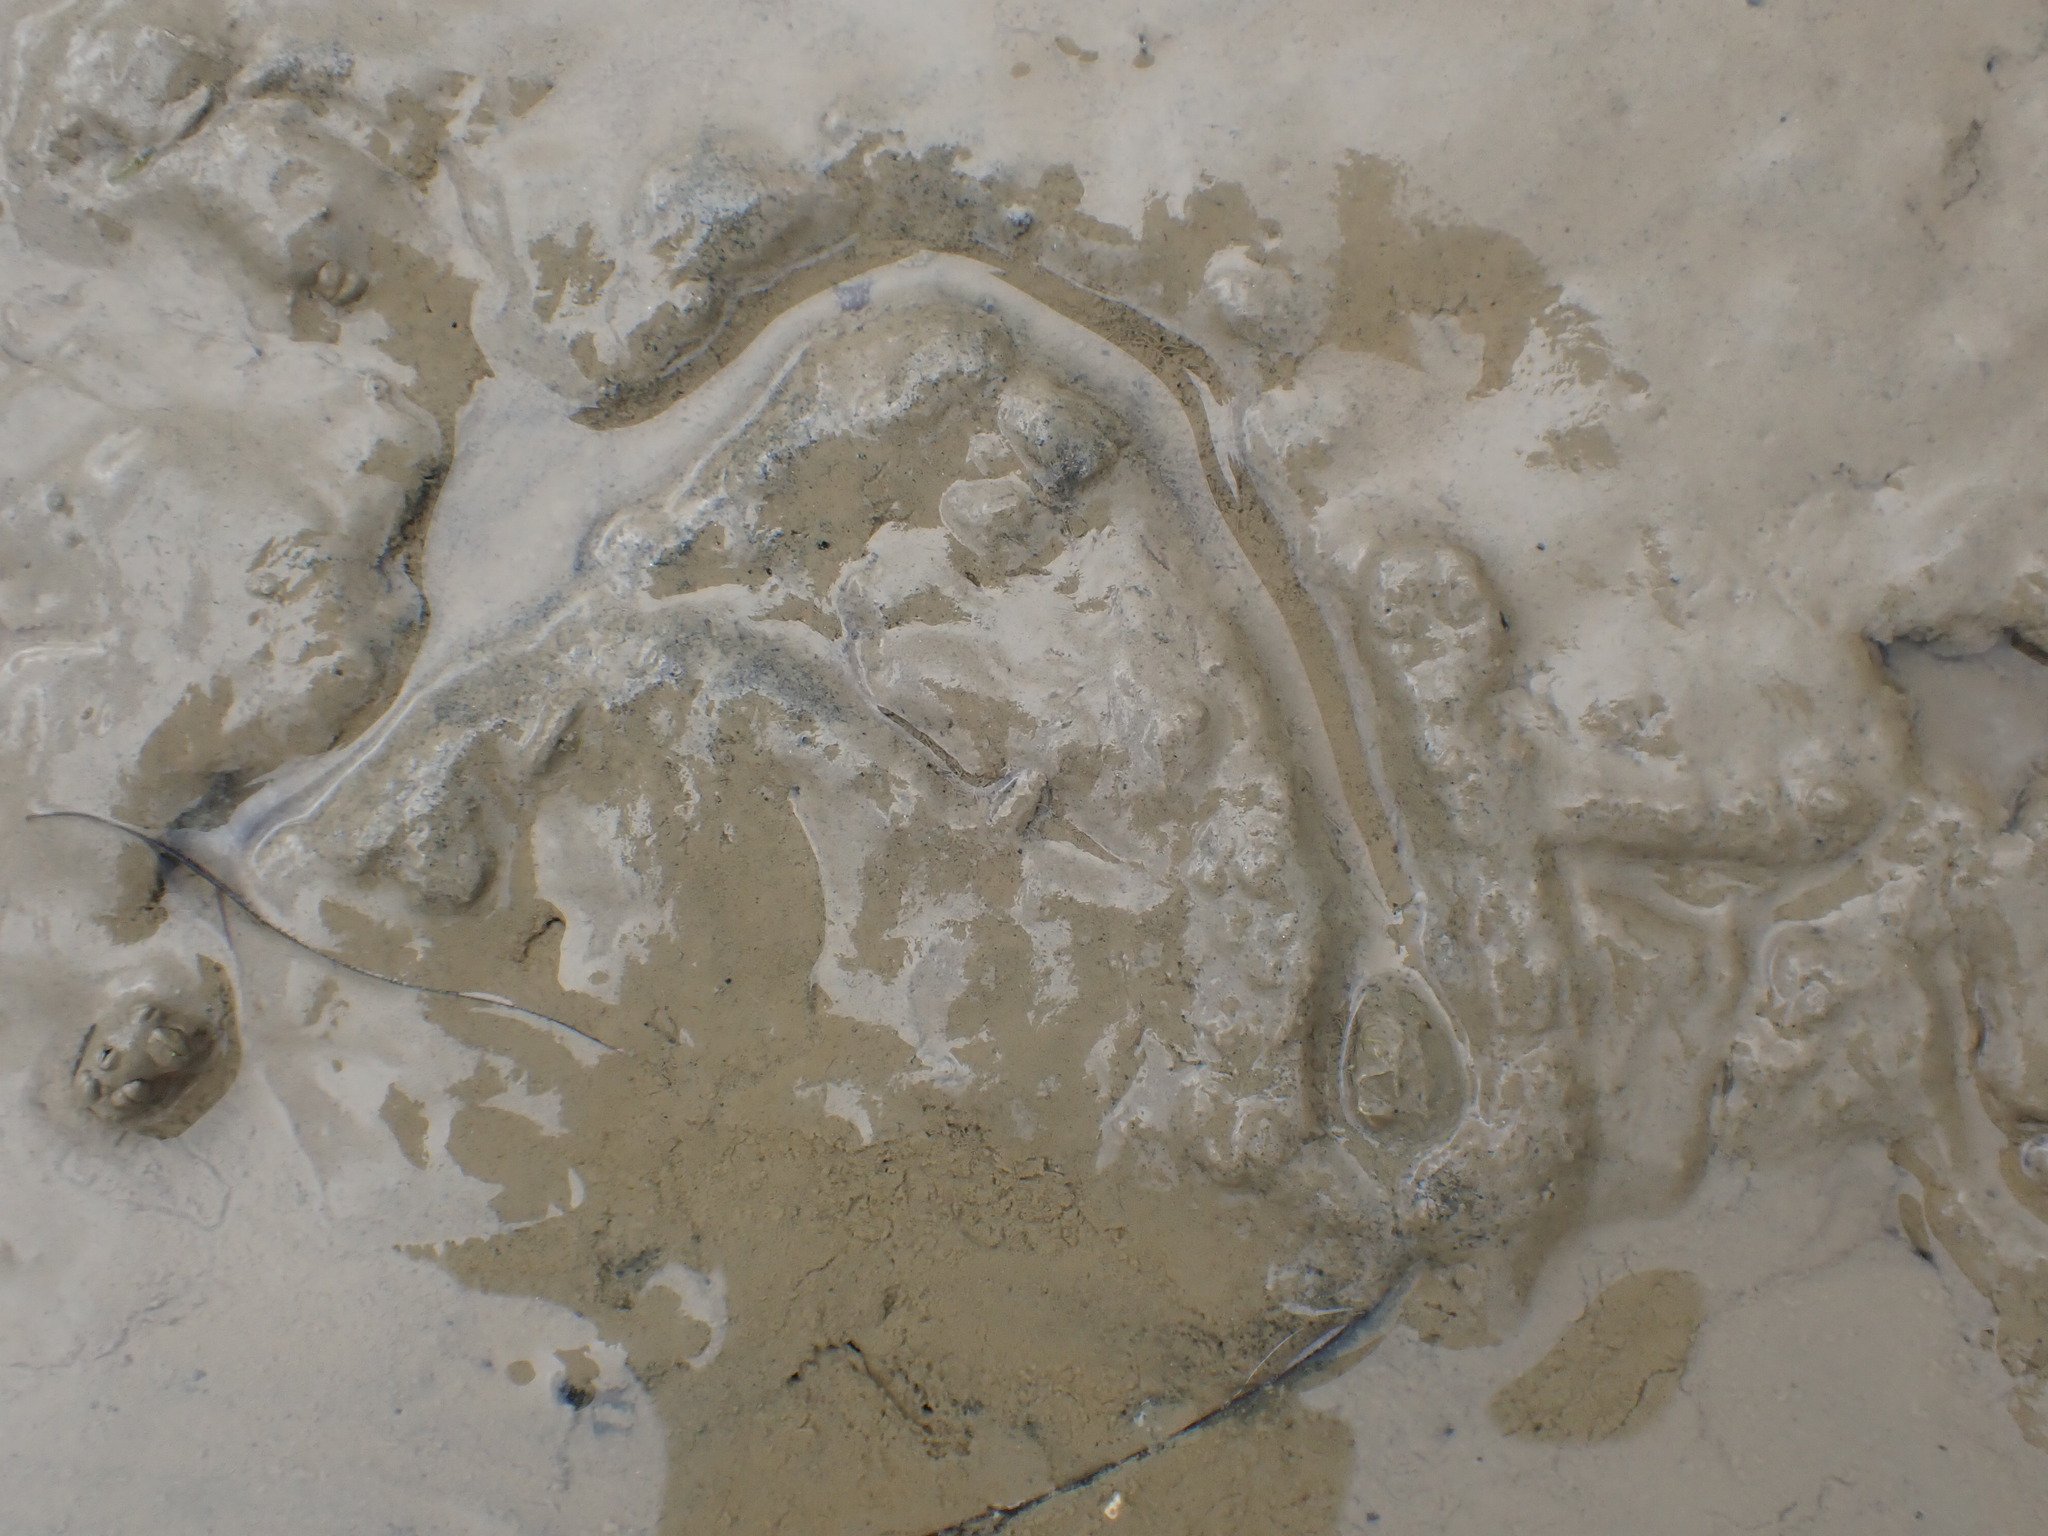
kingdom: Animalia
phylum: Mollusca
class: Bivalvia
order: Venerida
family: Veneridae
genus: Austrovenus
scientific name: Austrovenus stutchburyi
